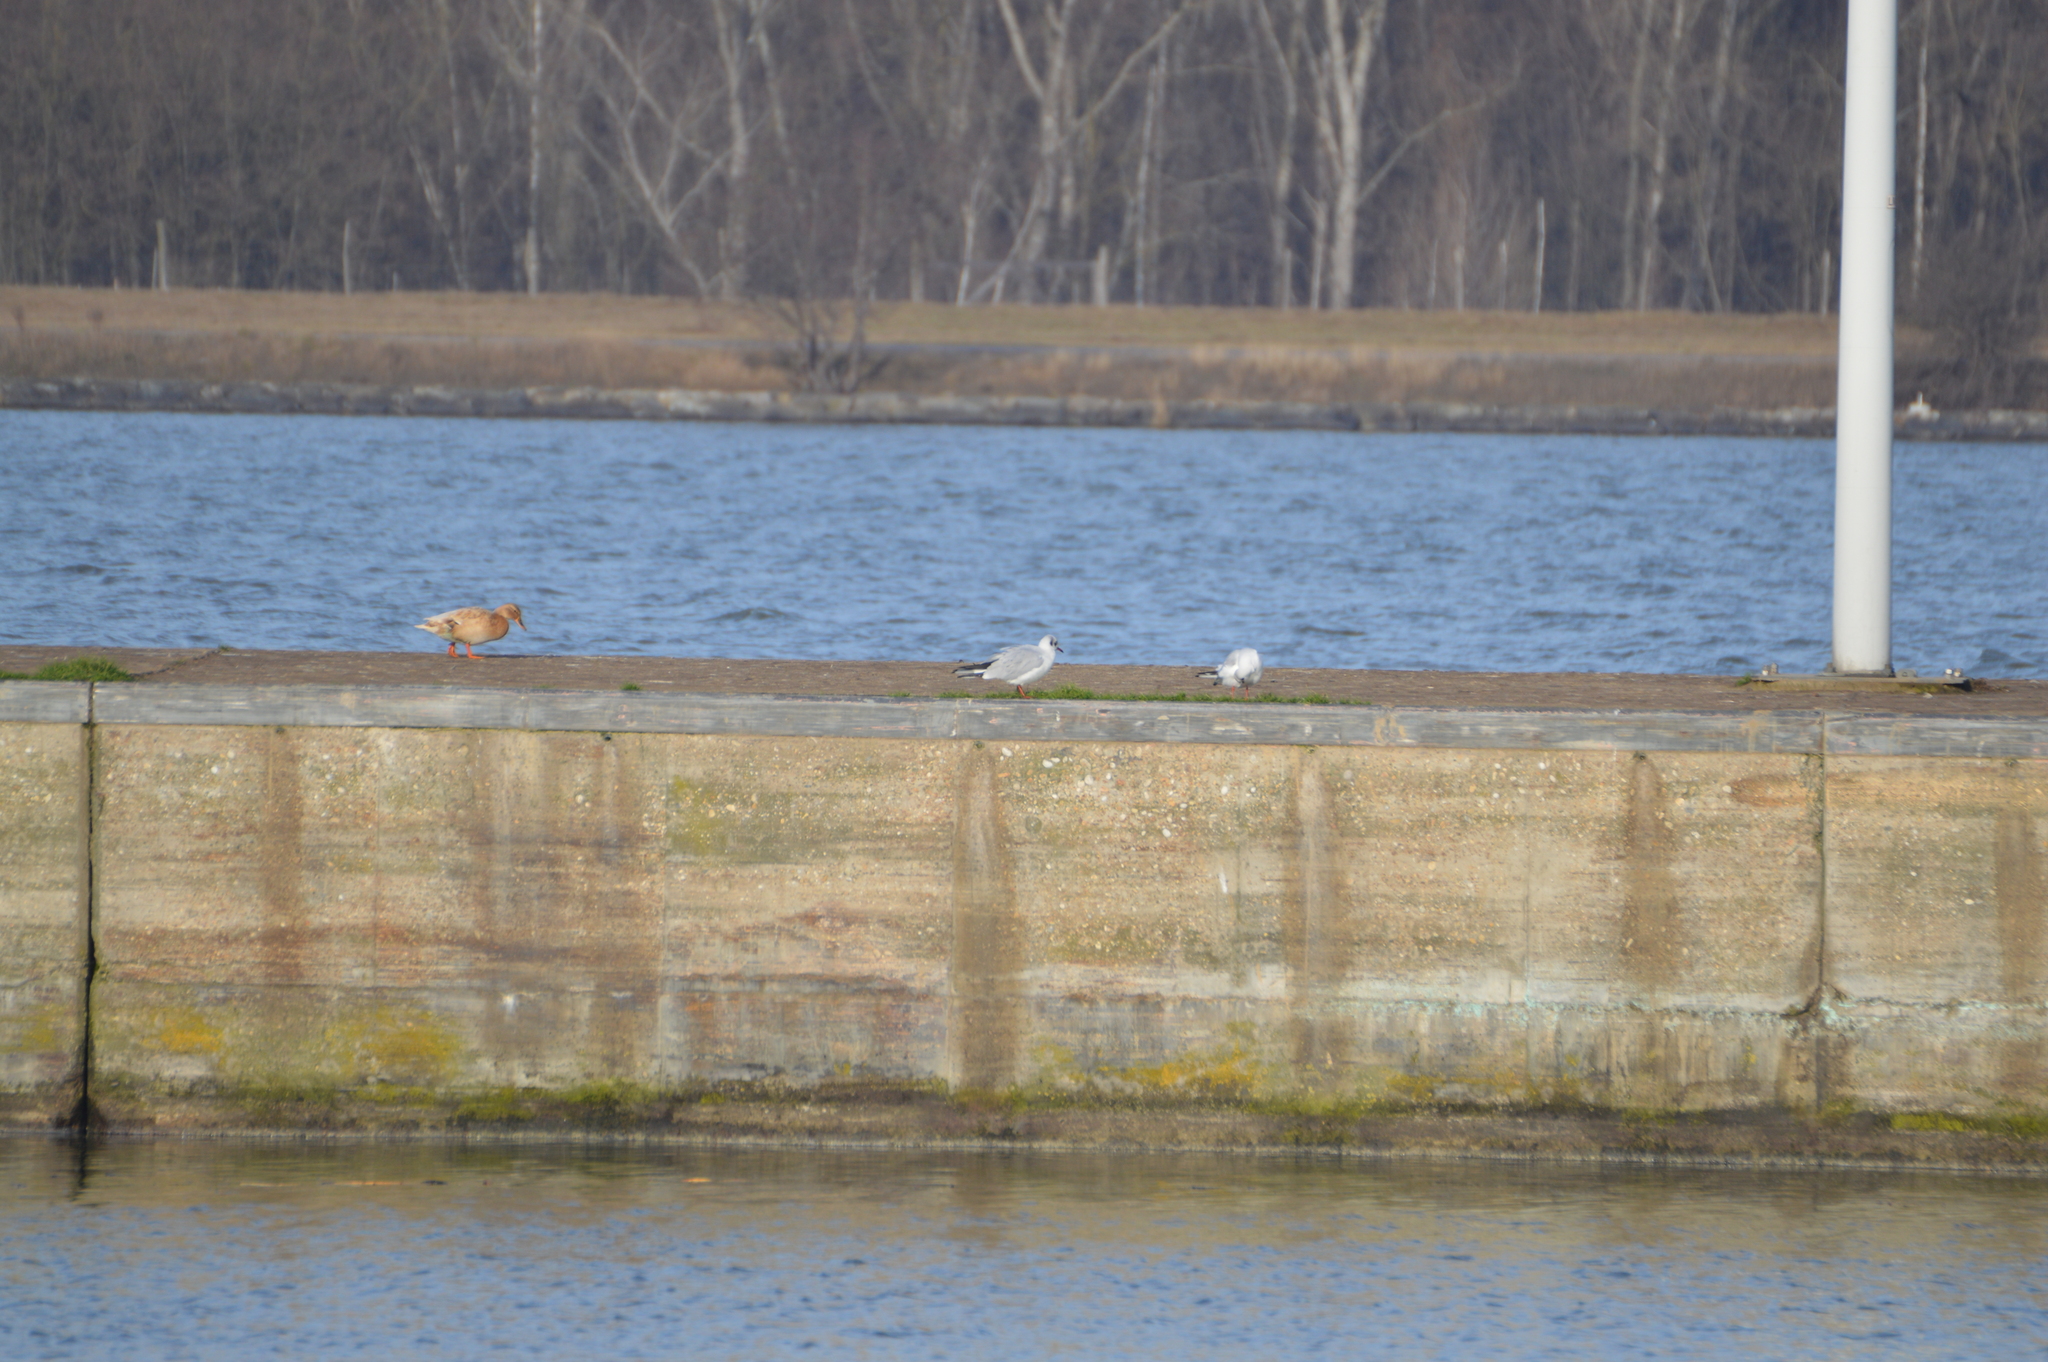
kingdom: Animalia
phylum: Chordata
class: Aves
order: Charadriiformes
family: Laridae
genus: Chroicocephalus
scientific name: Chroicocephalus ridibundus
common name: Black-headed gull
